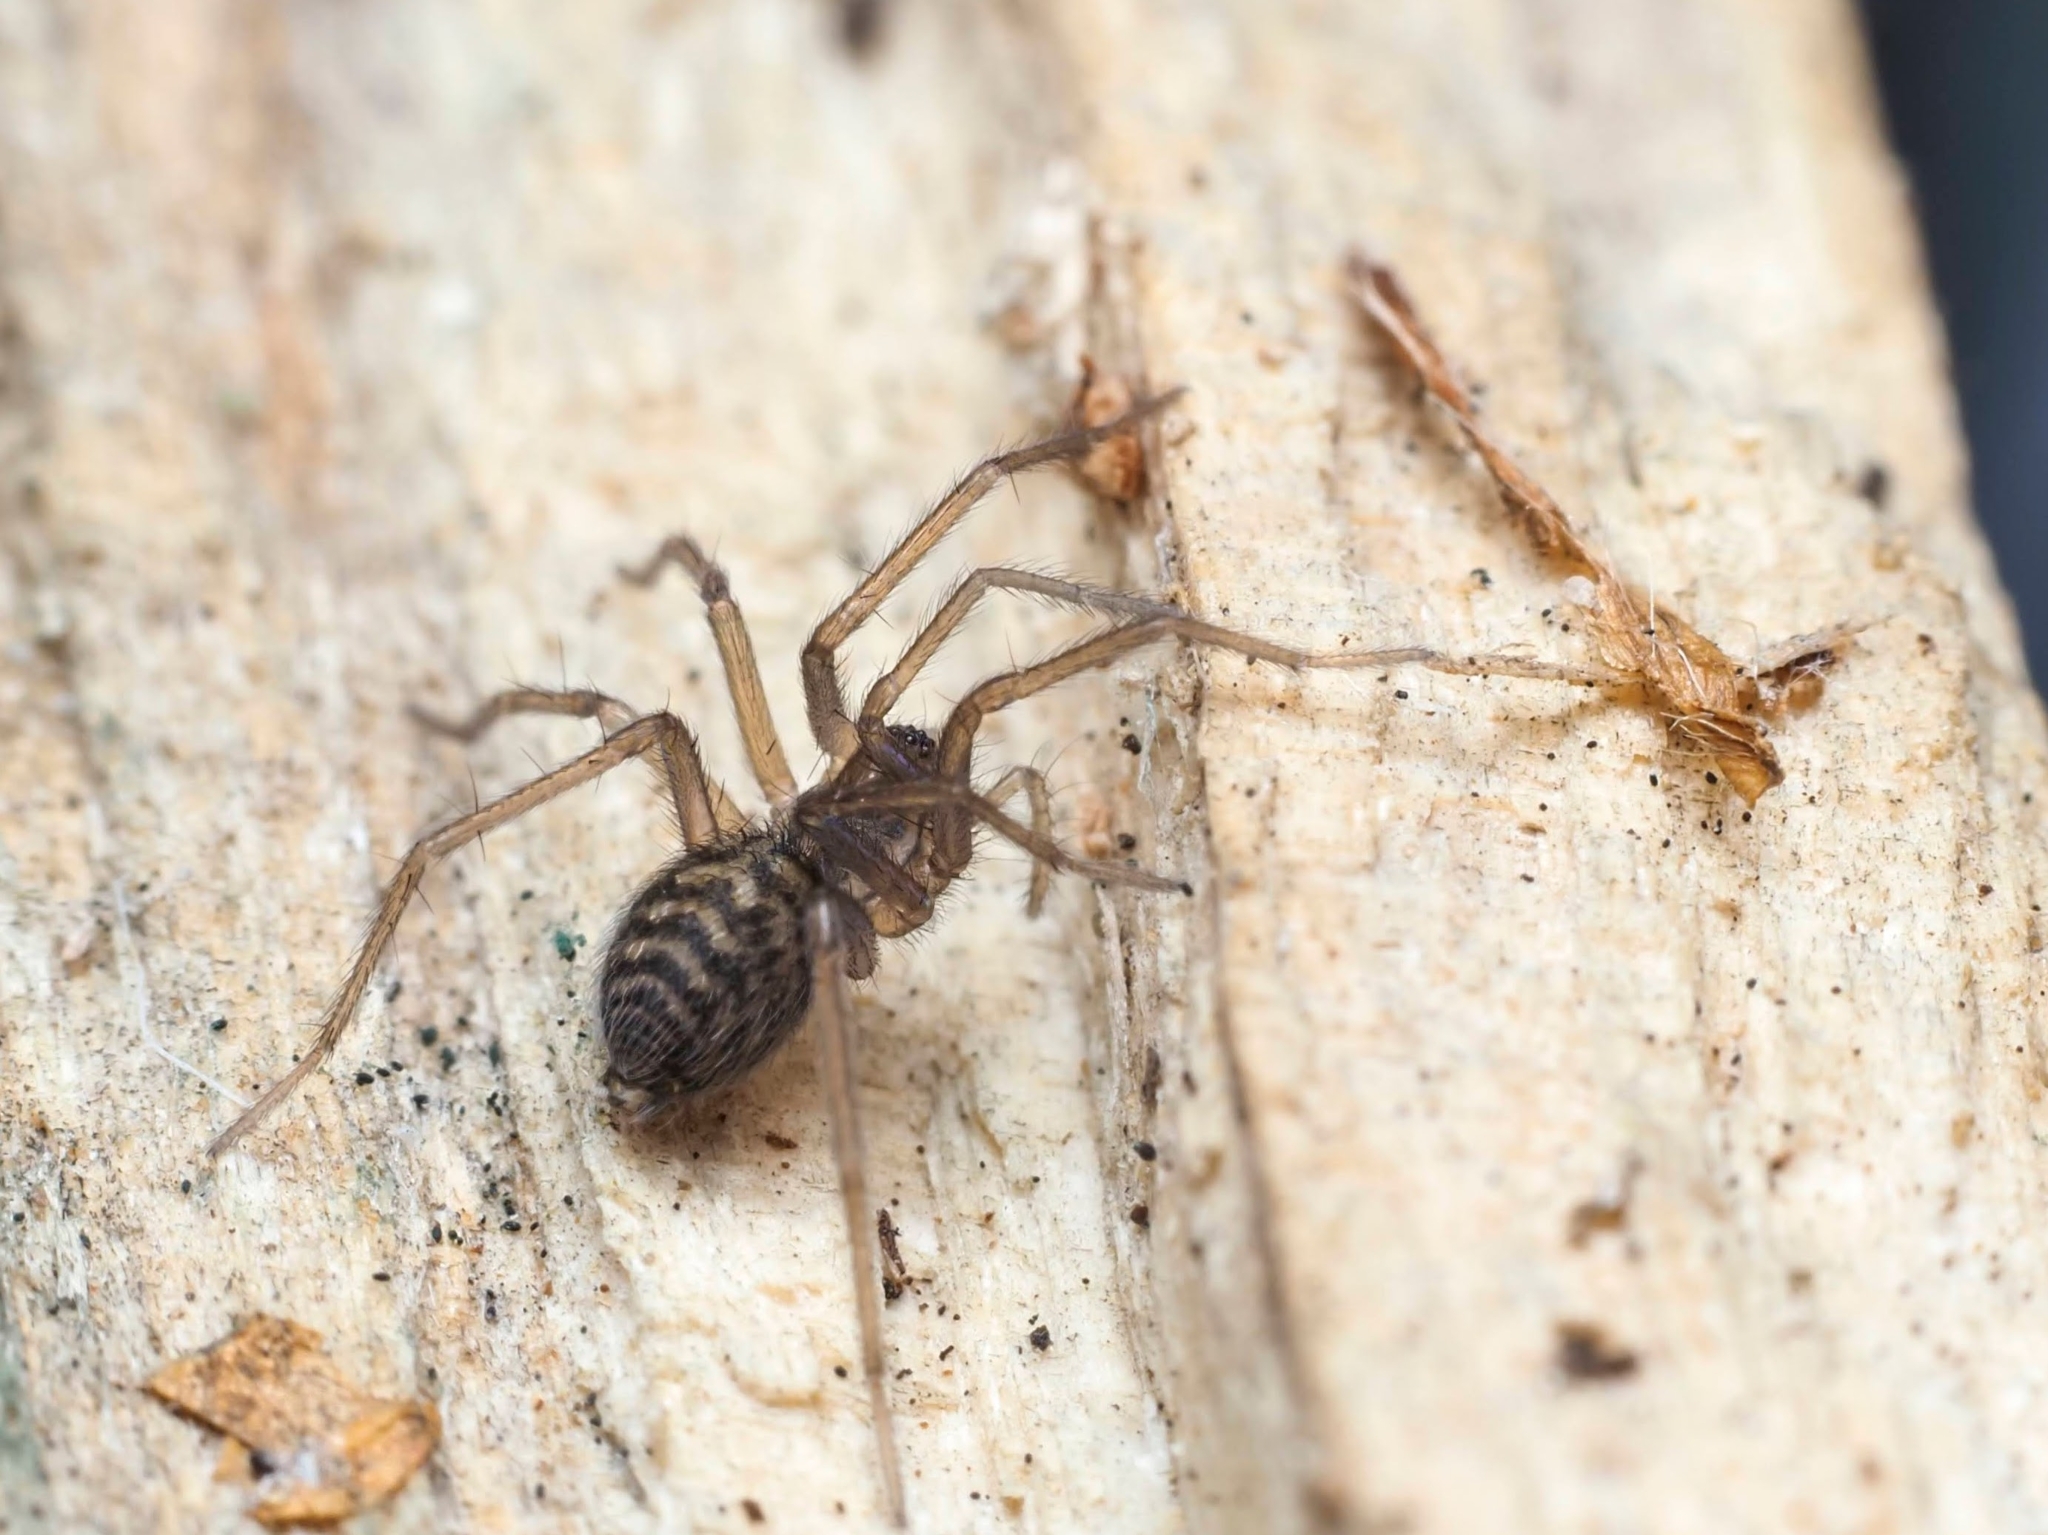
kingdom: Animalia
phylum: Arthropoda
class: Arachnida
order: Araneae
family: Agelenidae
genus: Eratigena
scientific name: Eratigena atrica
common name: Giant house spider
